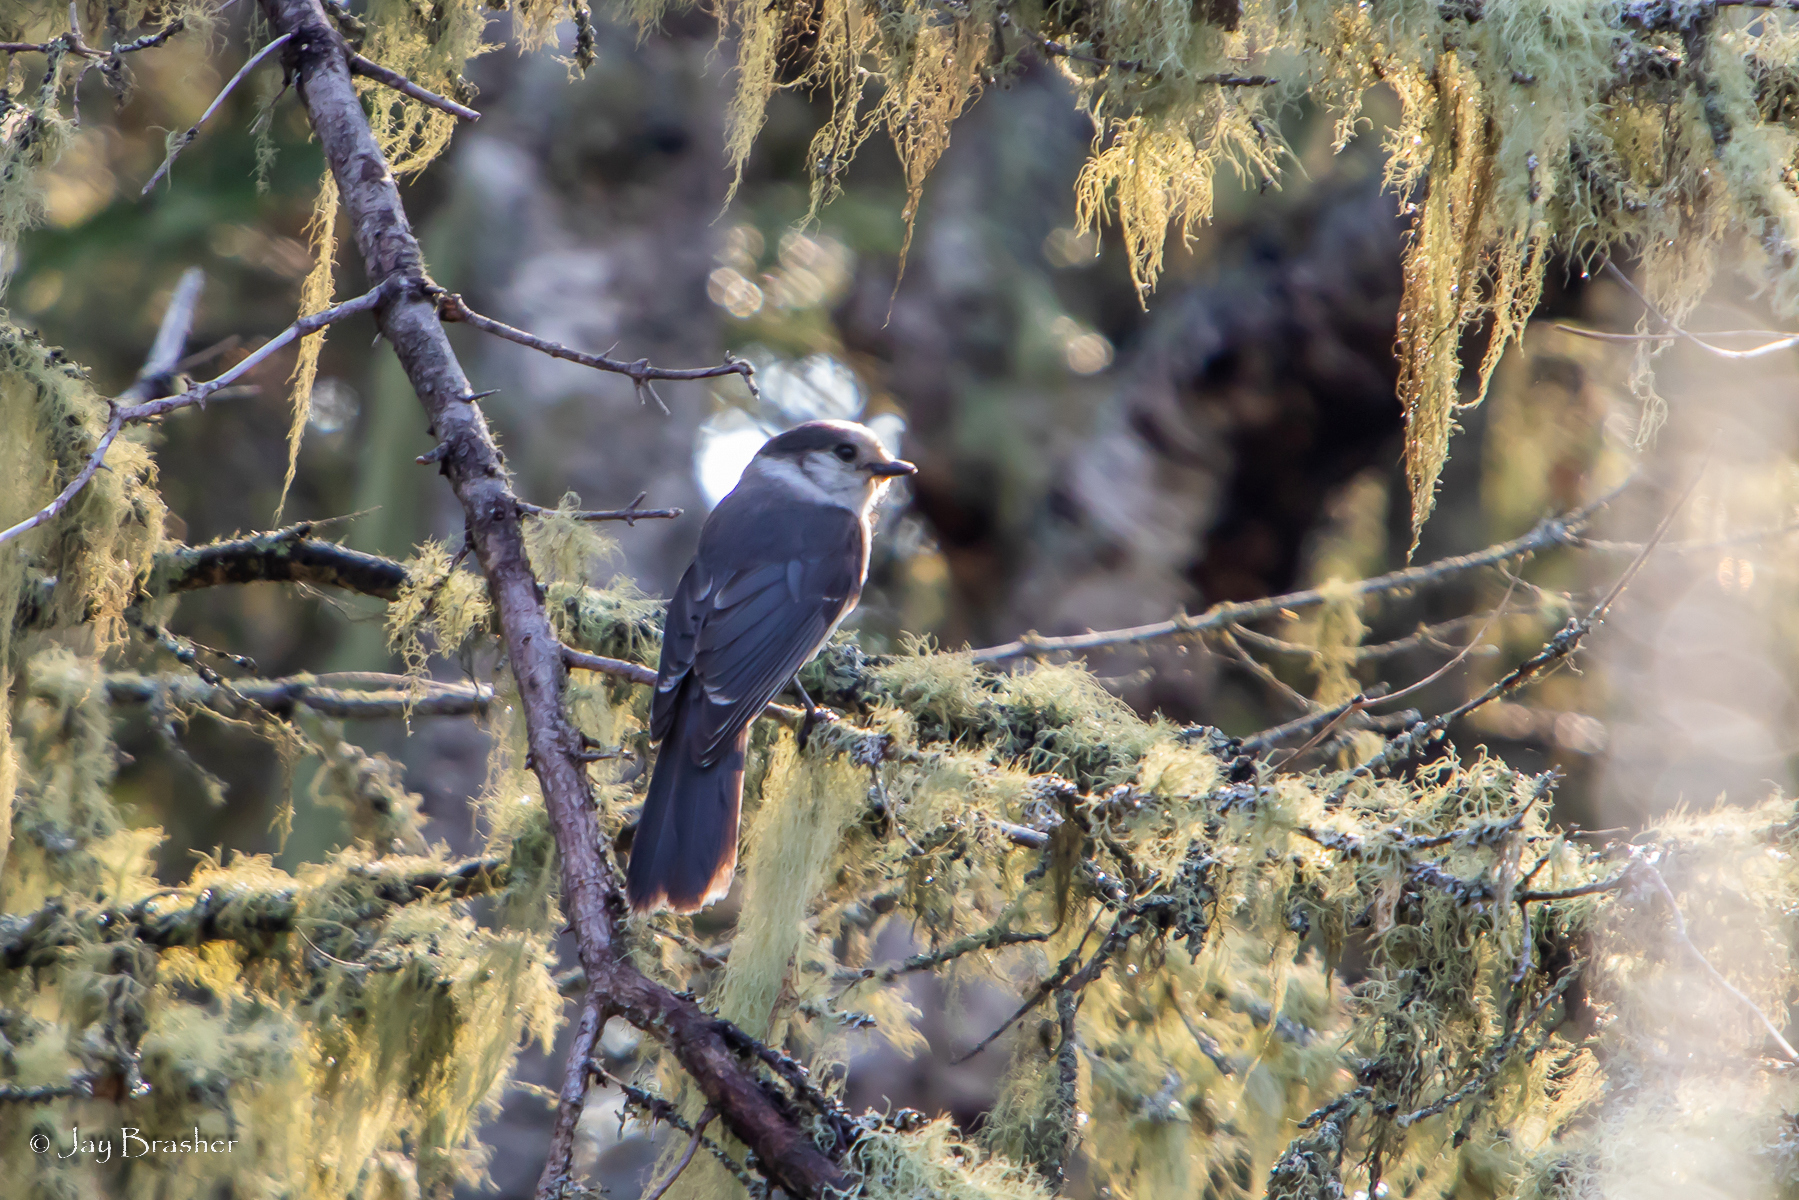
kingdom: Animalia
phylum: Chordata
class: Aves
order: Passeriformes
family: Corvidae
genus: Perisoreus
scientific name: Perisoreus canadensis
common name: Gray jay
